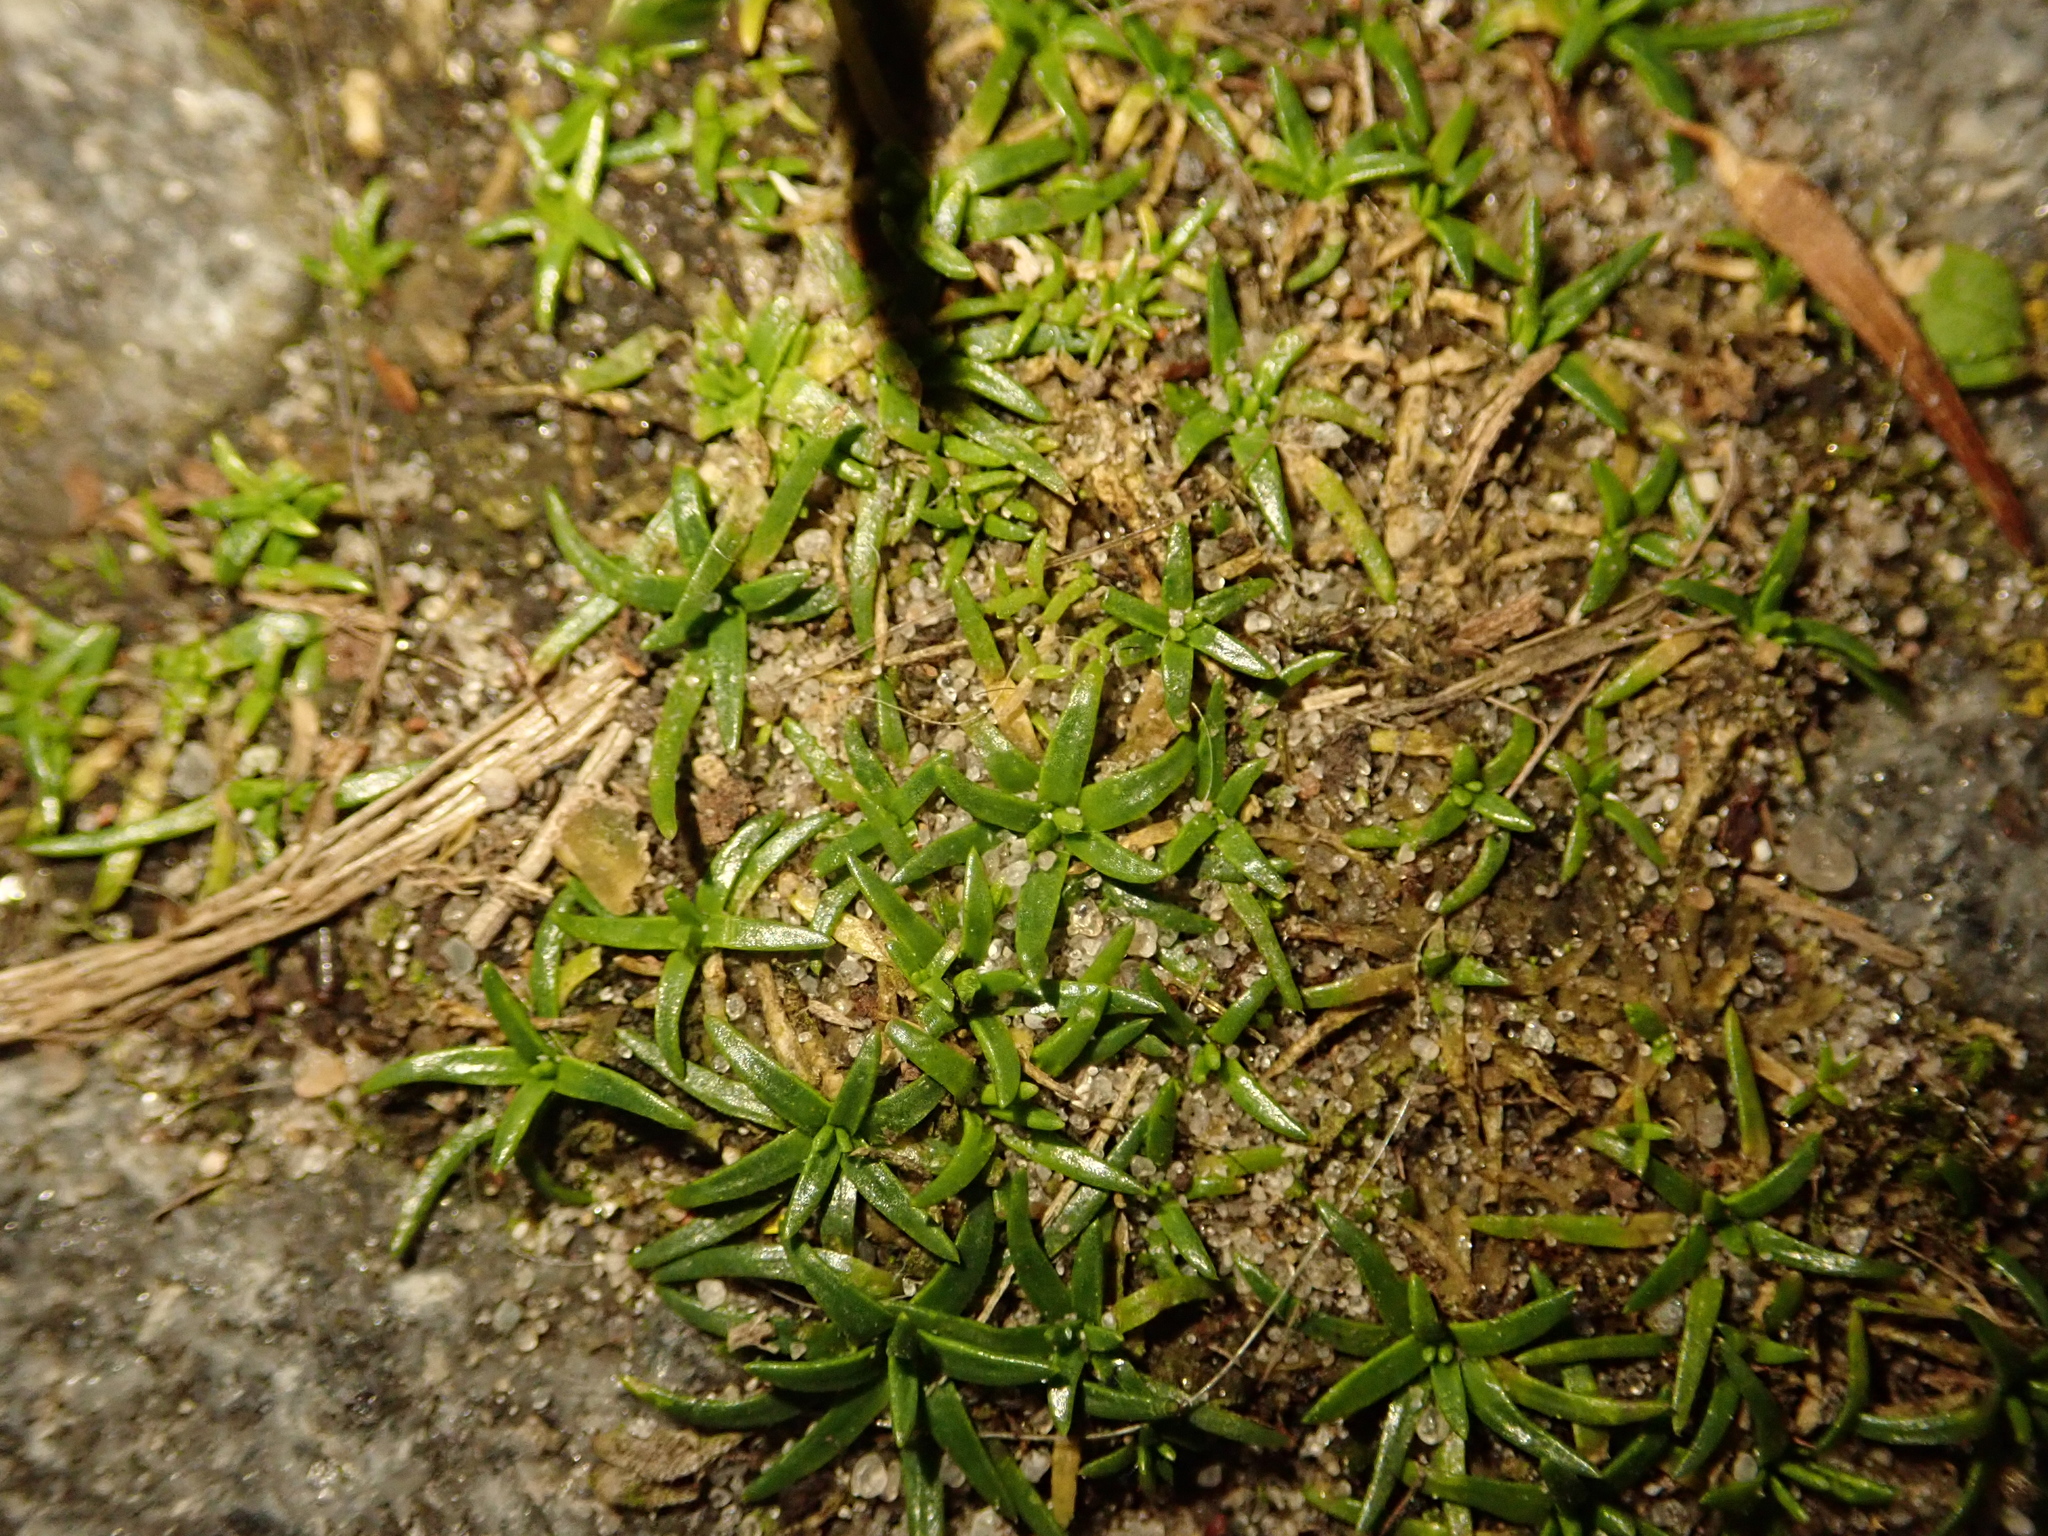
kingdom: Plantae
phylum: Tracheophyta
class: Magnoliopsida
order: Caryophyllales
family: Caryophyllaceae
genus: Sagina
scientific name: Sagina procumbens
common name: Procumbent pearlwort
